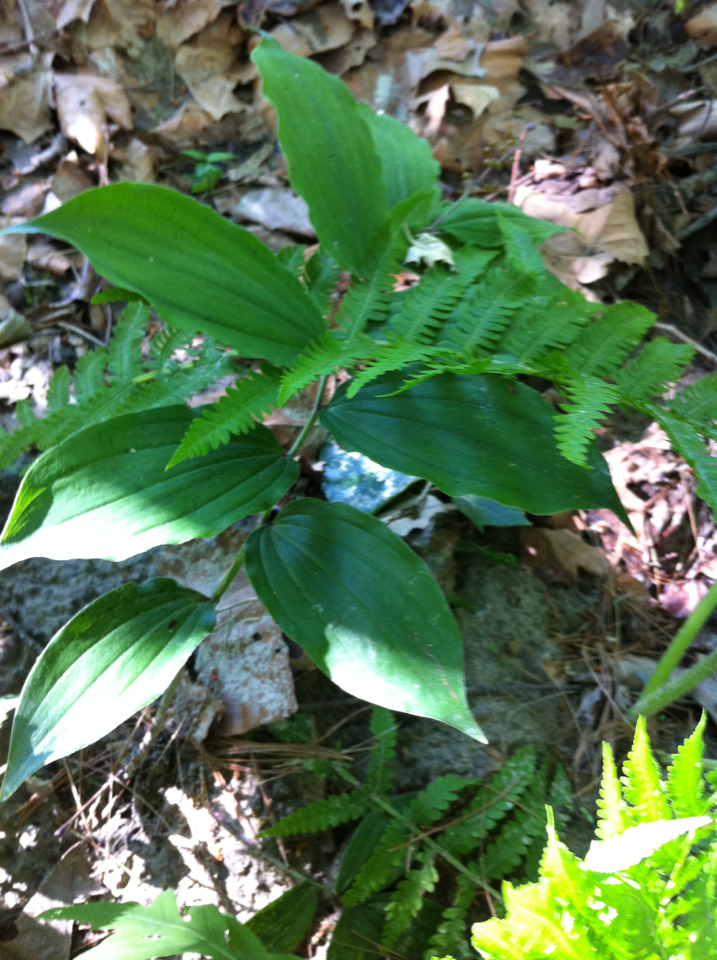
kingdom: Plantae
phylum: Tracheophyta
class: Liliopsida
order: Asparagales
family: Asparagaceae
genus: Maianthemum
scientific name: Maianthemum racemosum
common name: False spikenard
